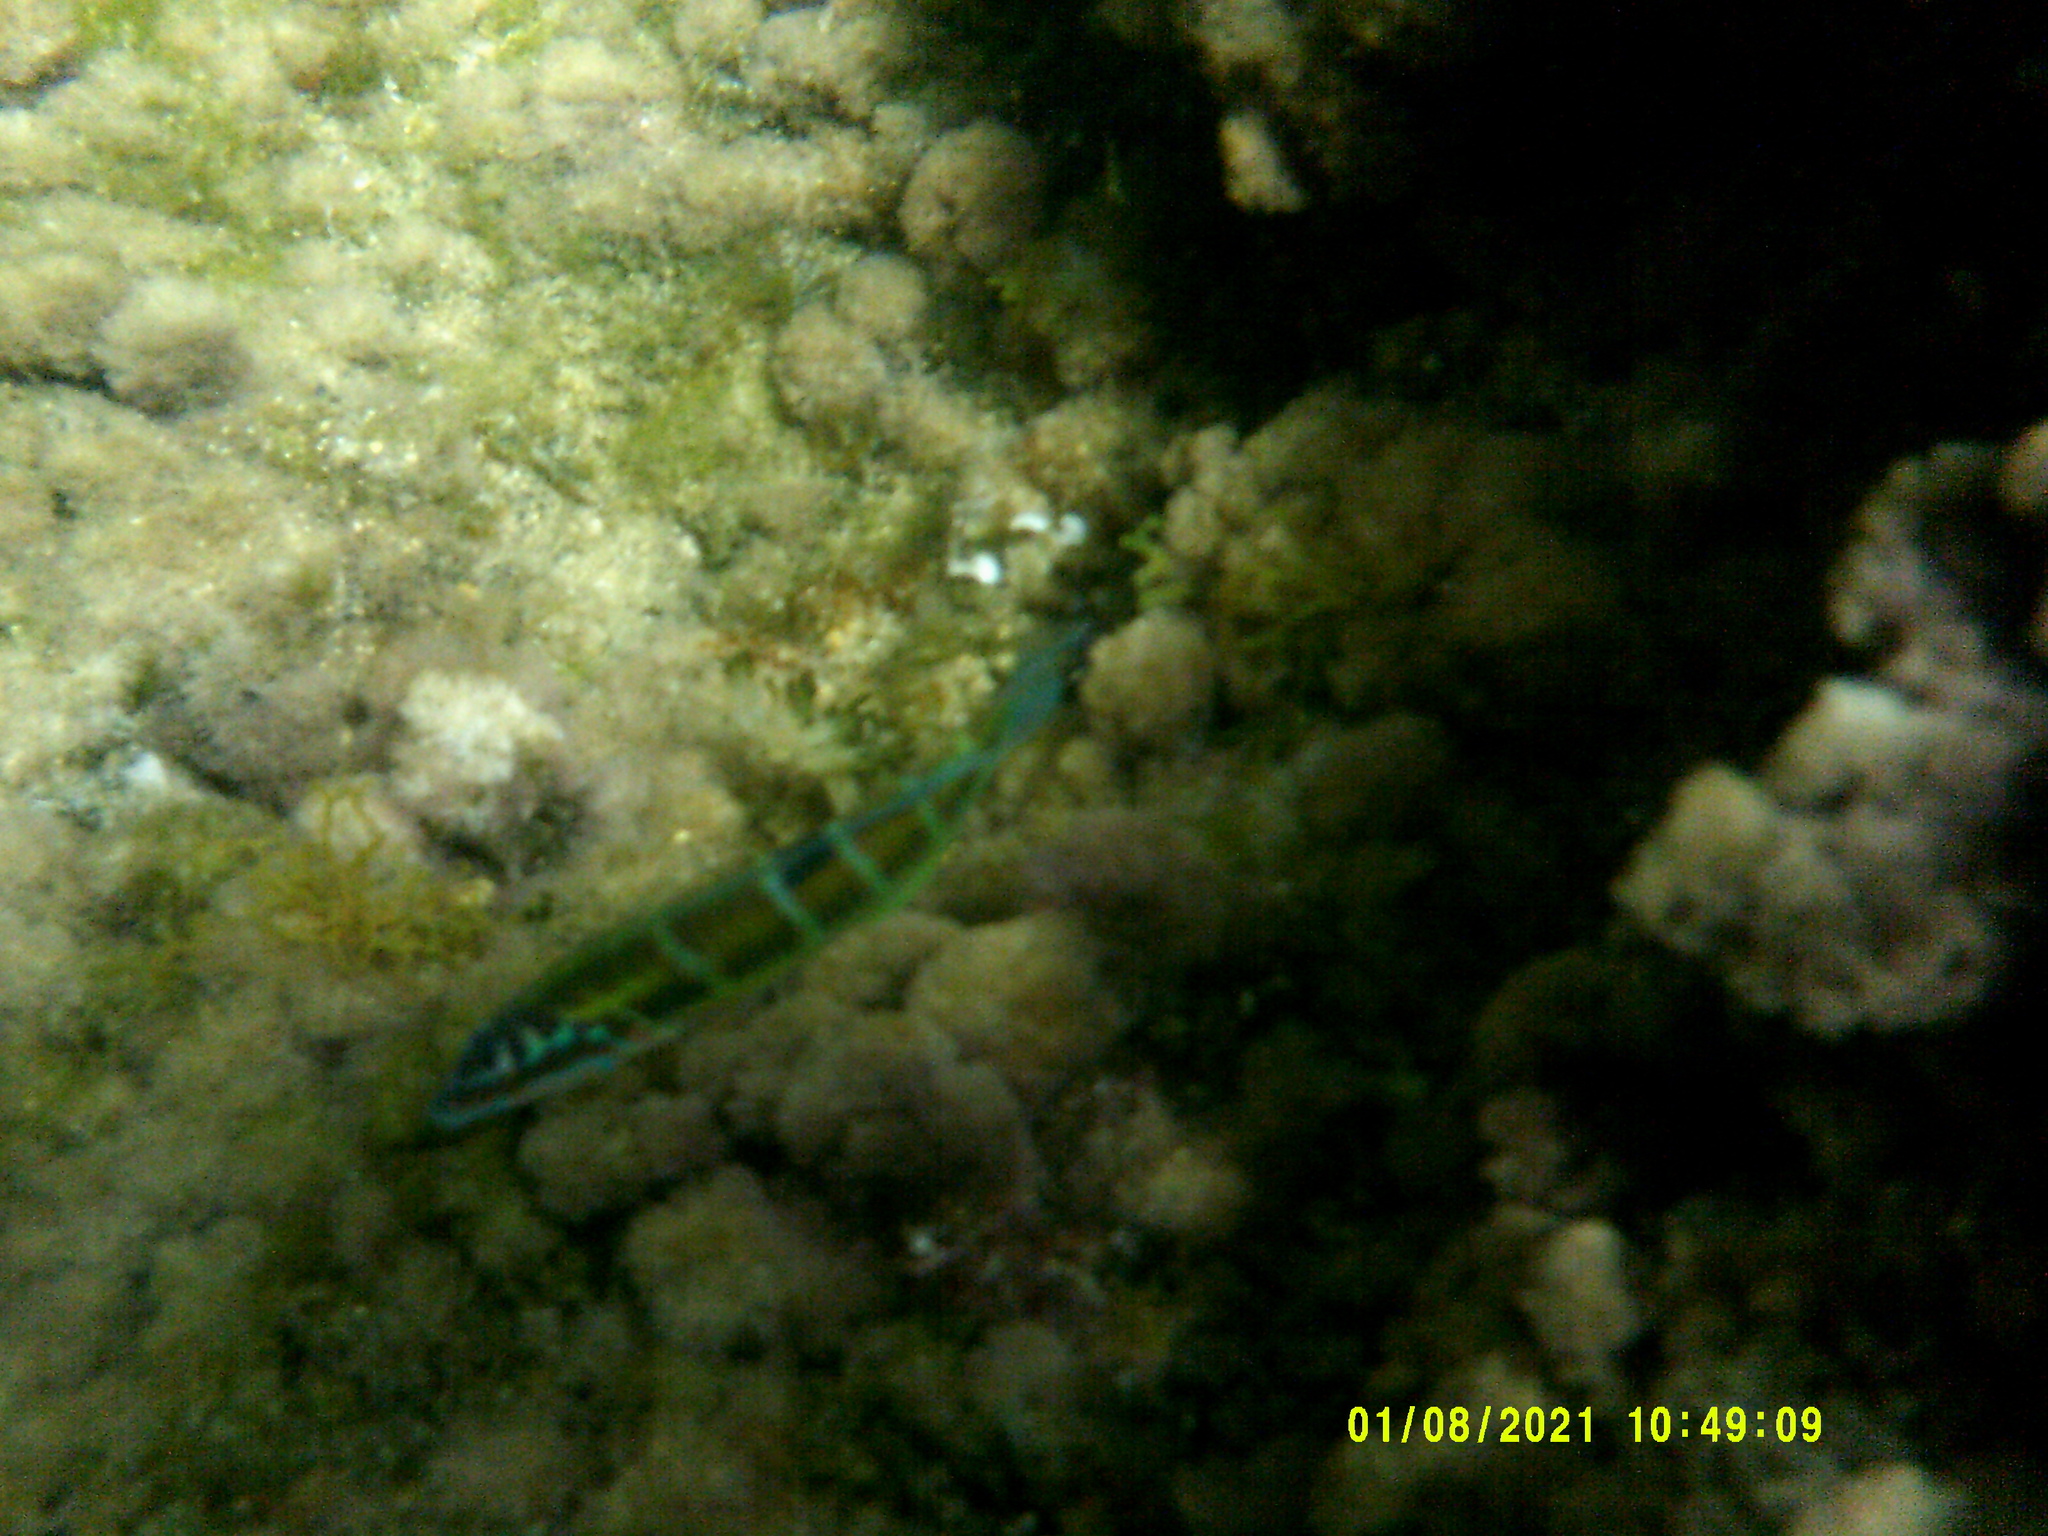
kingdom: Animalia
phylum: Chordata
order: Perciformes
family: Labridae
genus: Thalassoma
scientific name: Thalassoma pavo
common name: Ornate wrasse
